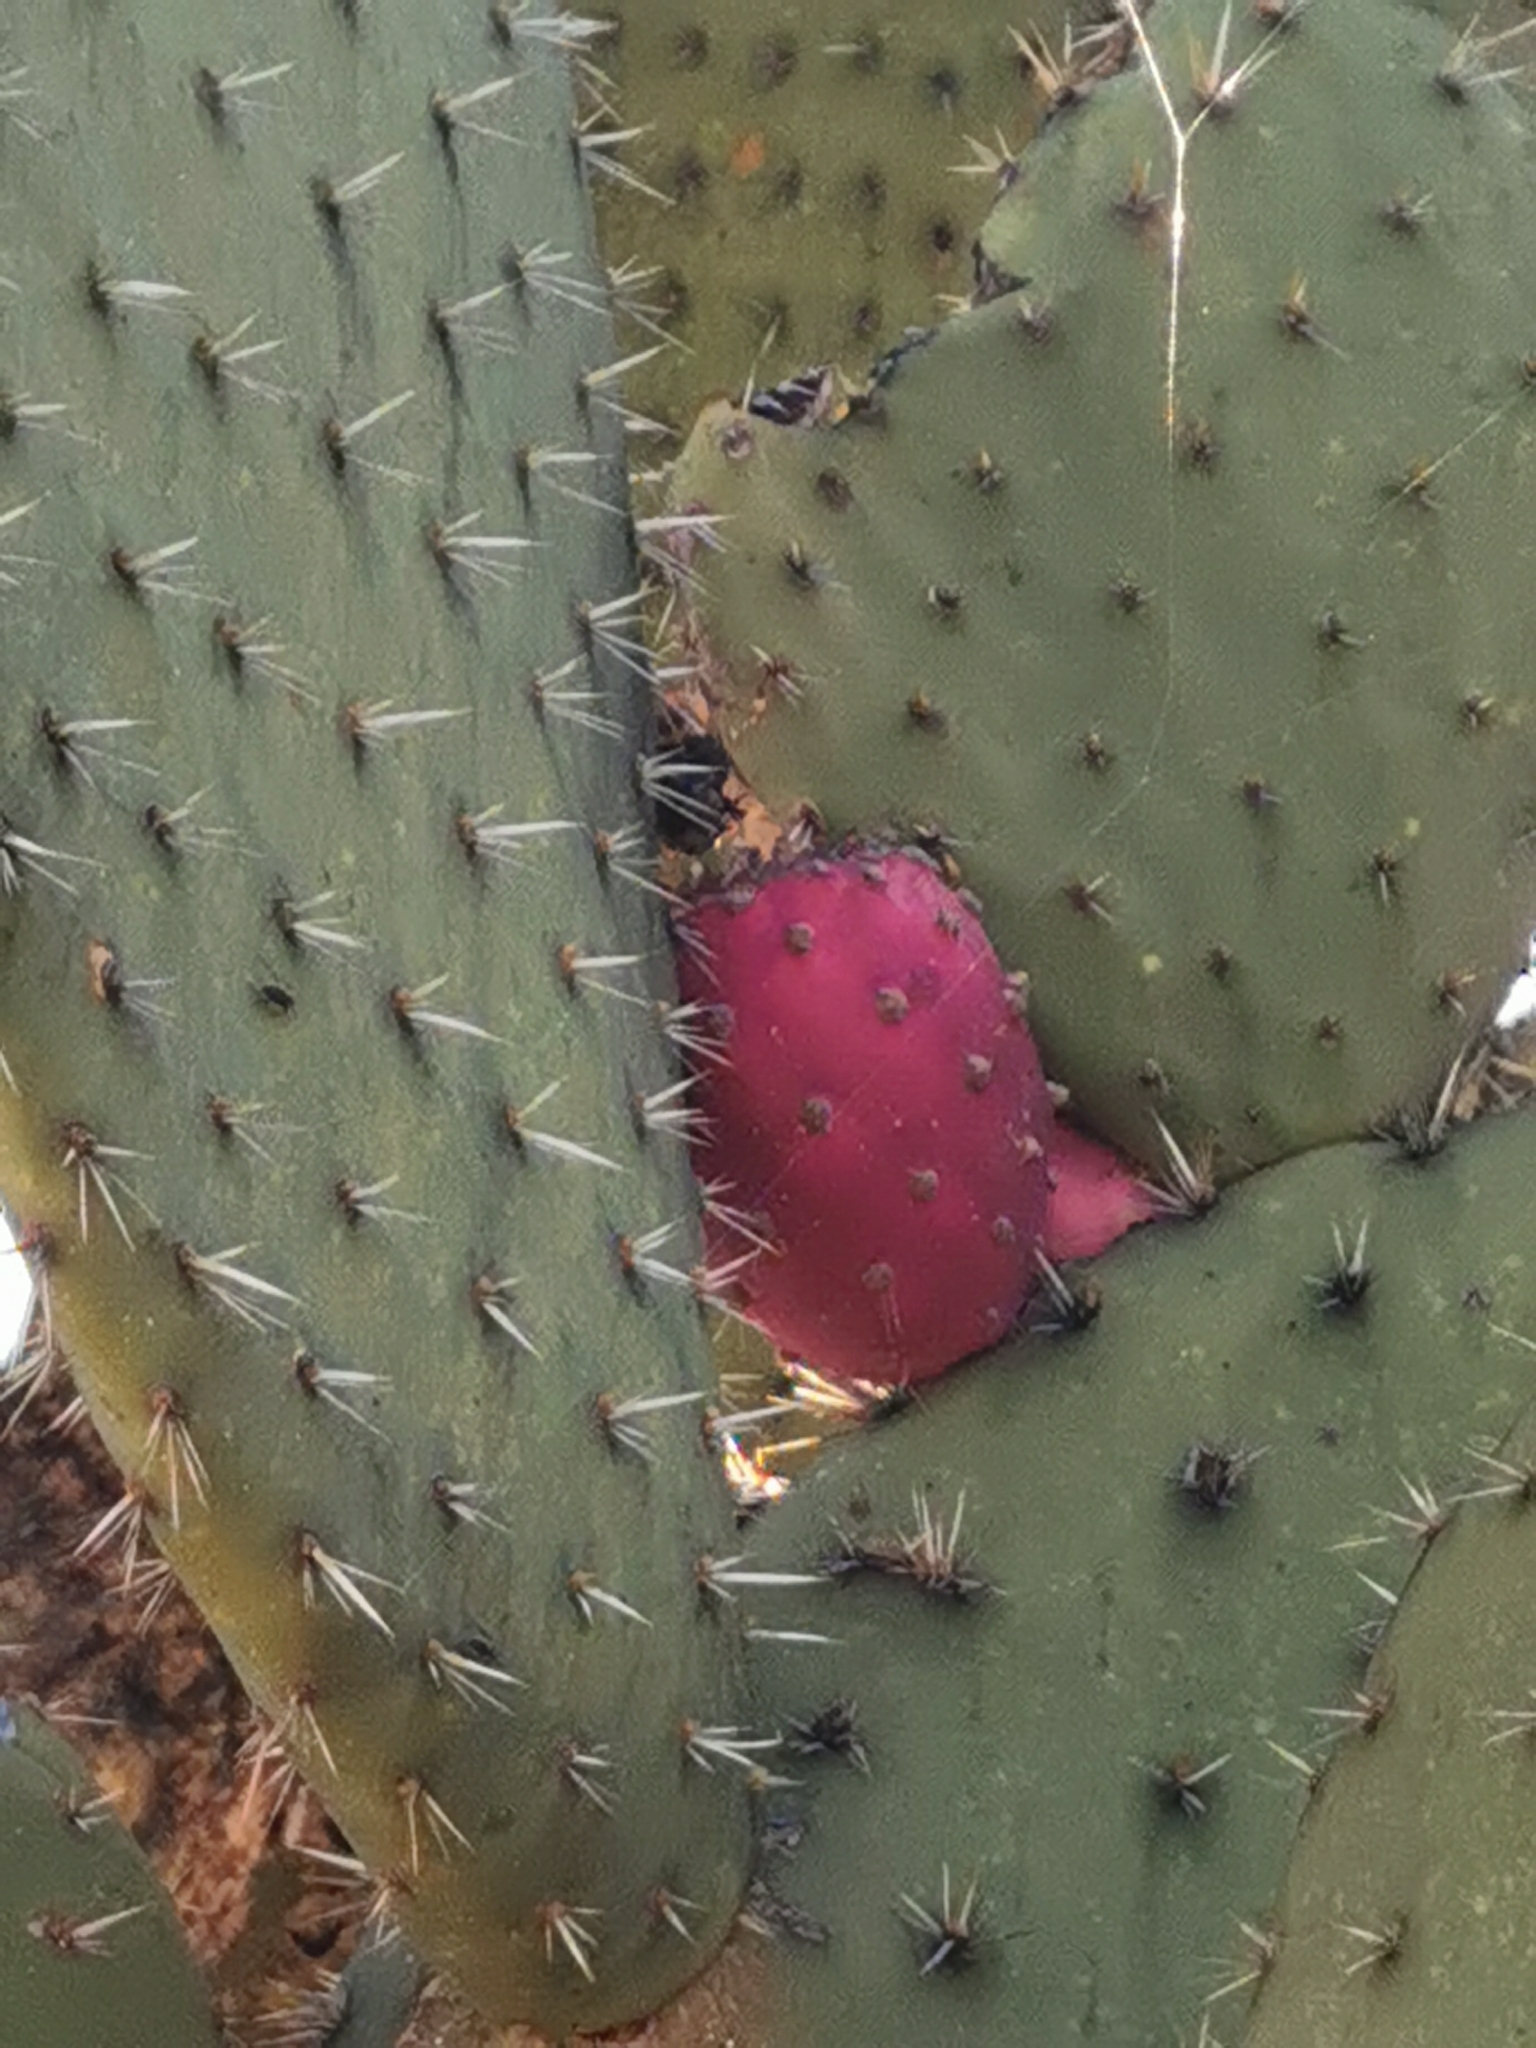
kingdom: Plantae
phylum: Tracheophyta
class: Magnoliopsida
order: Caryophyllales
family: Cactaceae
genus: Opuntia
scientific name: Opuntia hyptiacantha
